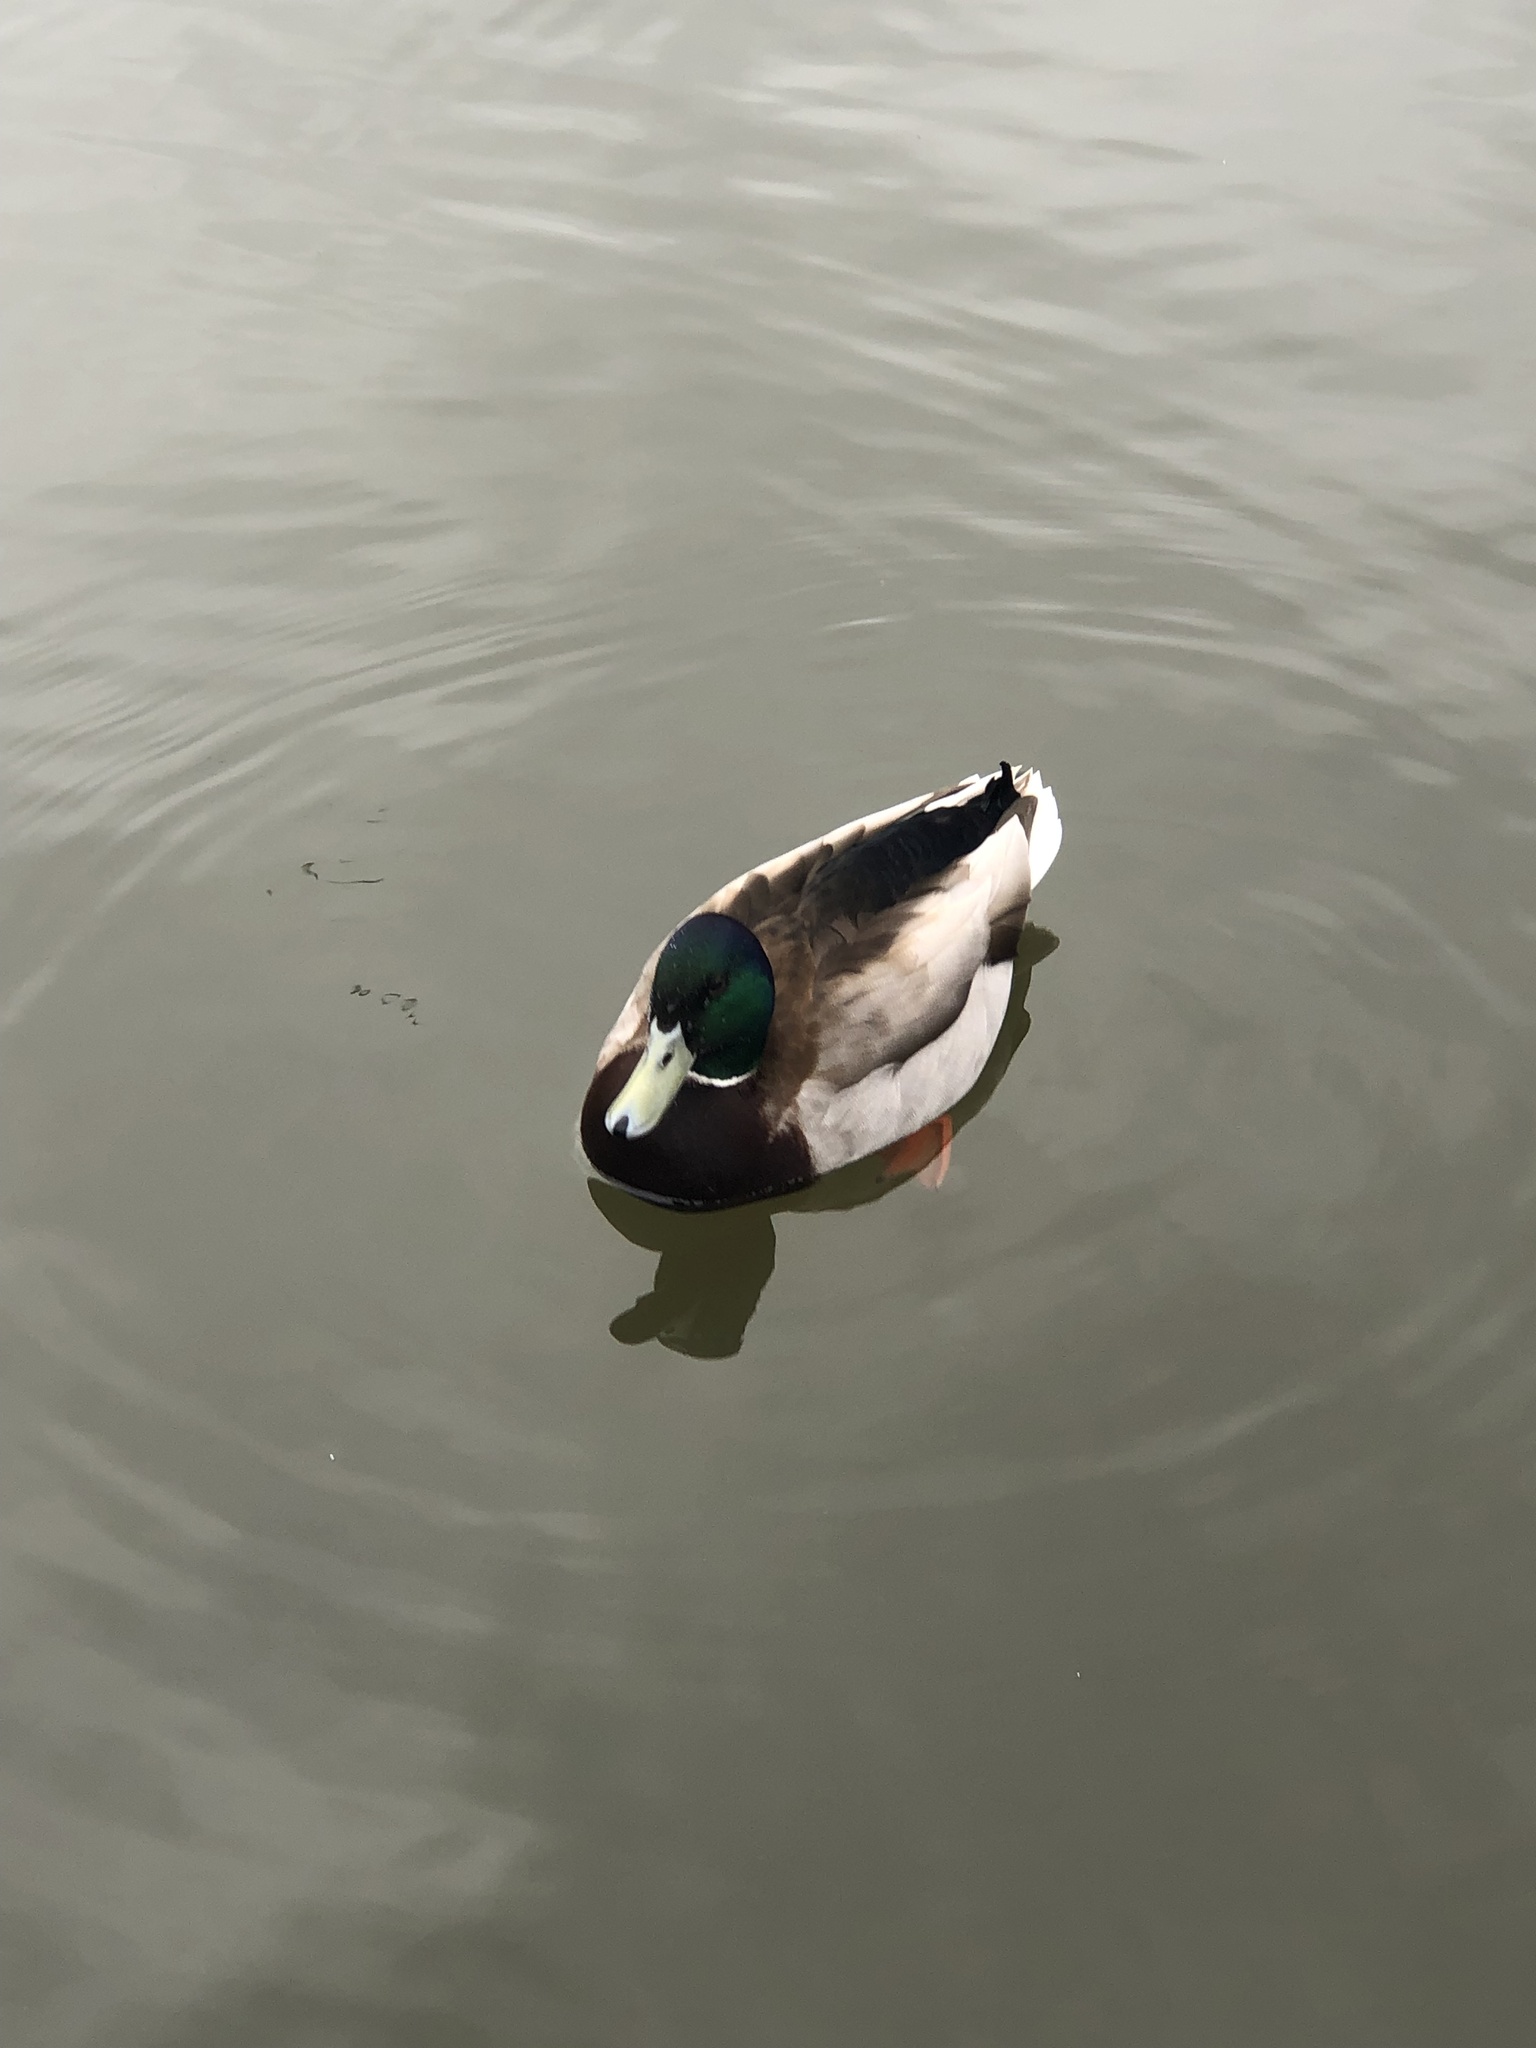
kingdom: Animalia
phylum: Chordata
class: Aves
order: Anseriformes
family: Anatidae
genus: Anas
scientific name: Anas platyrhynchos
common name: Mallard
